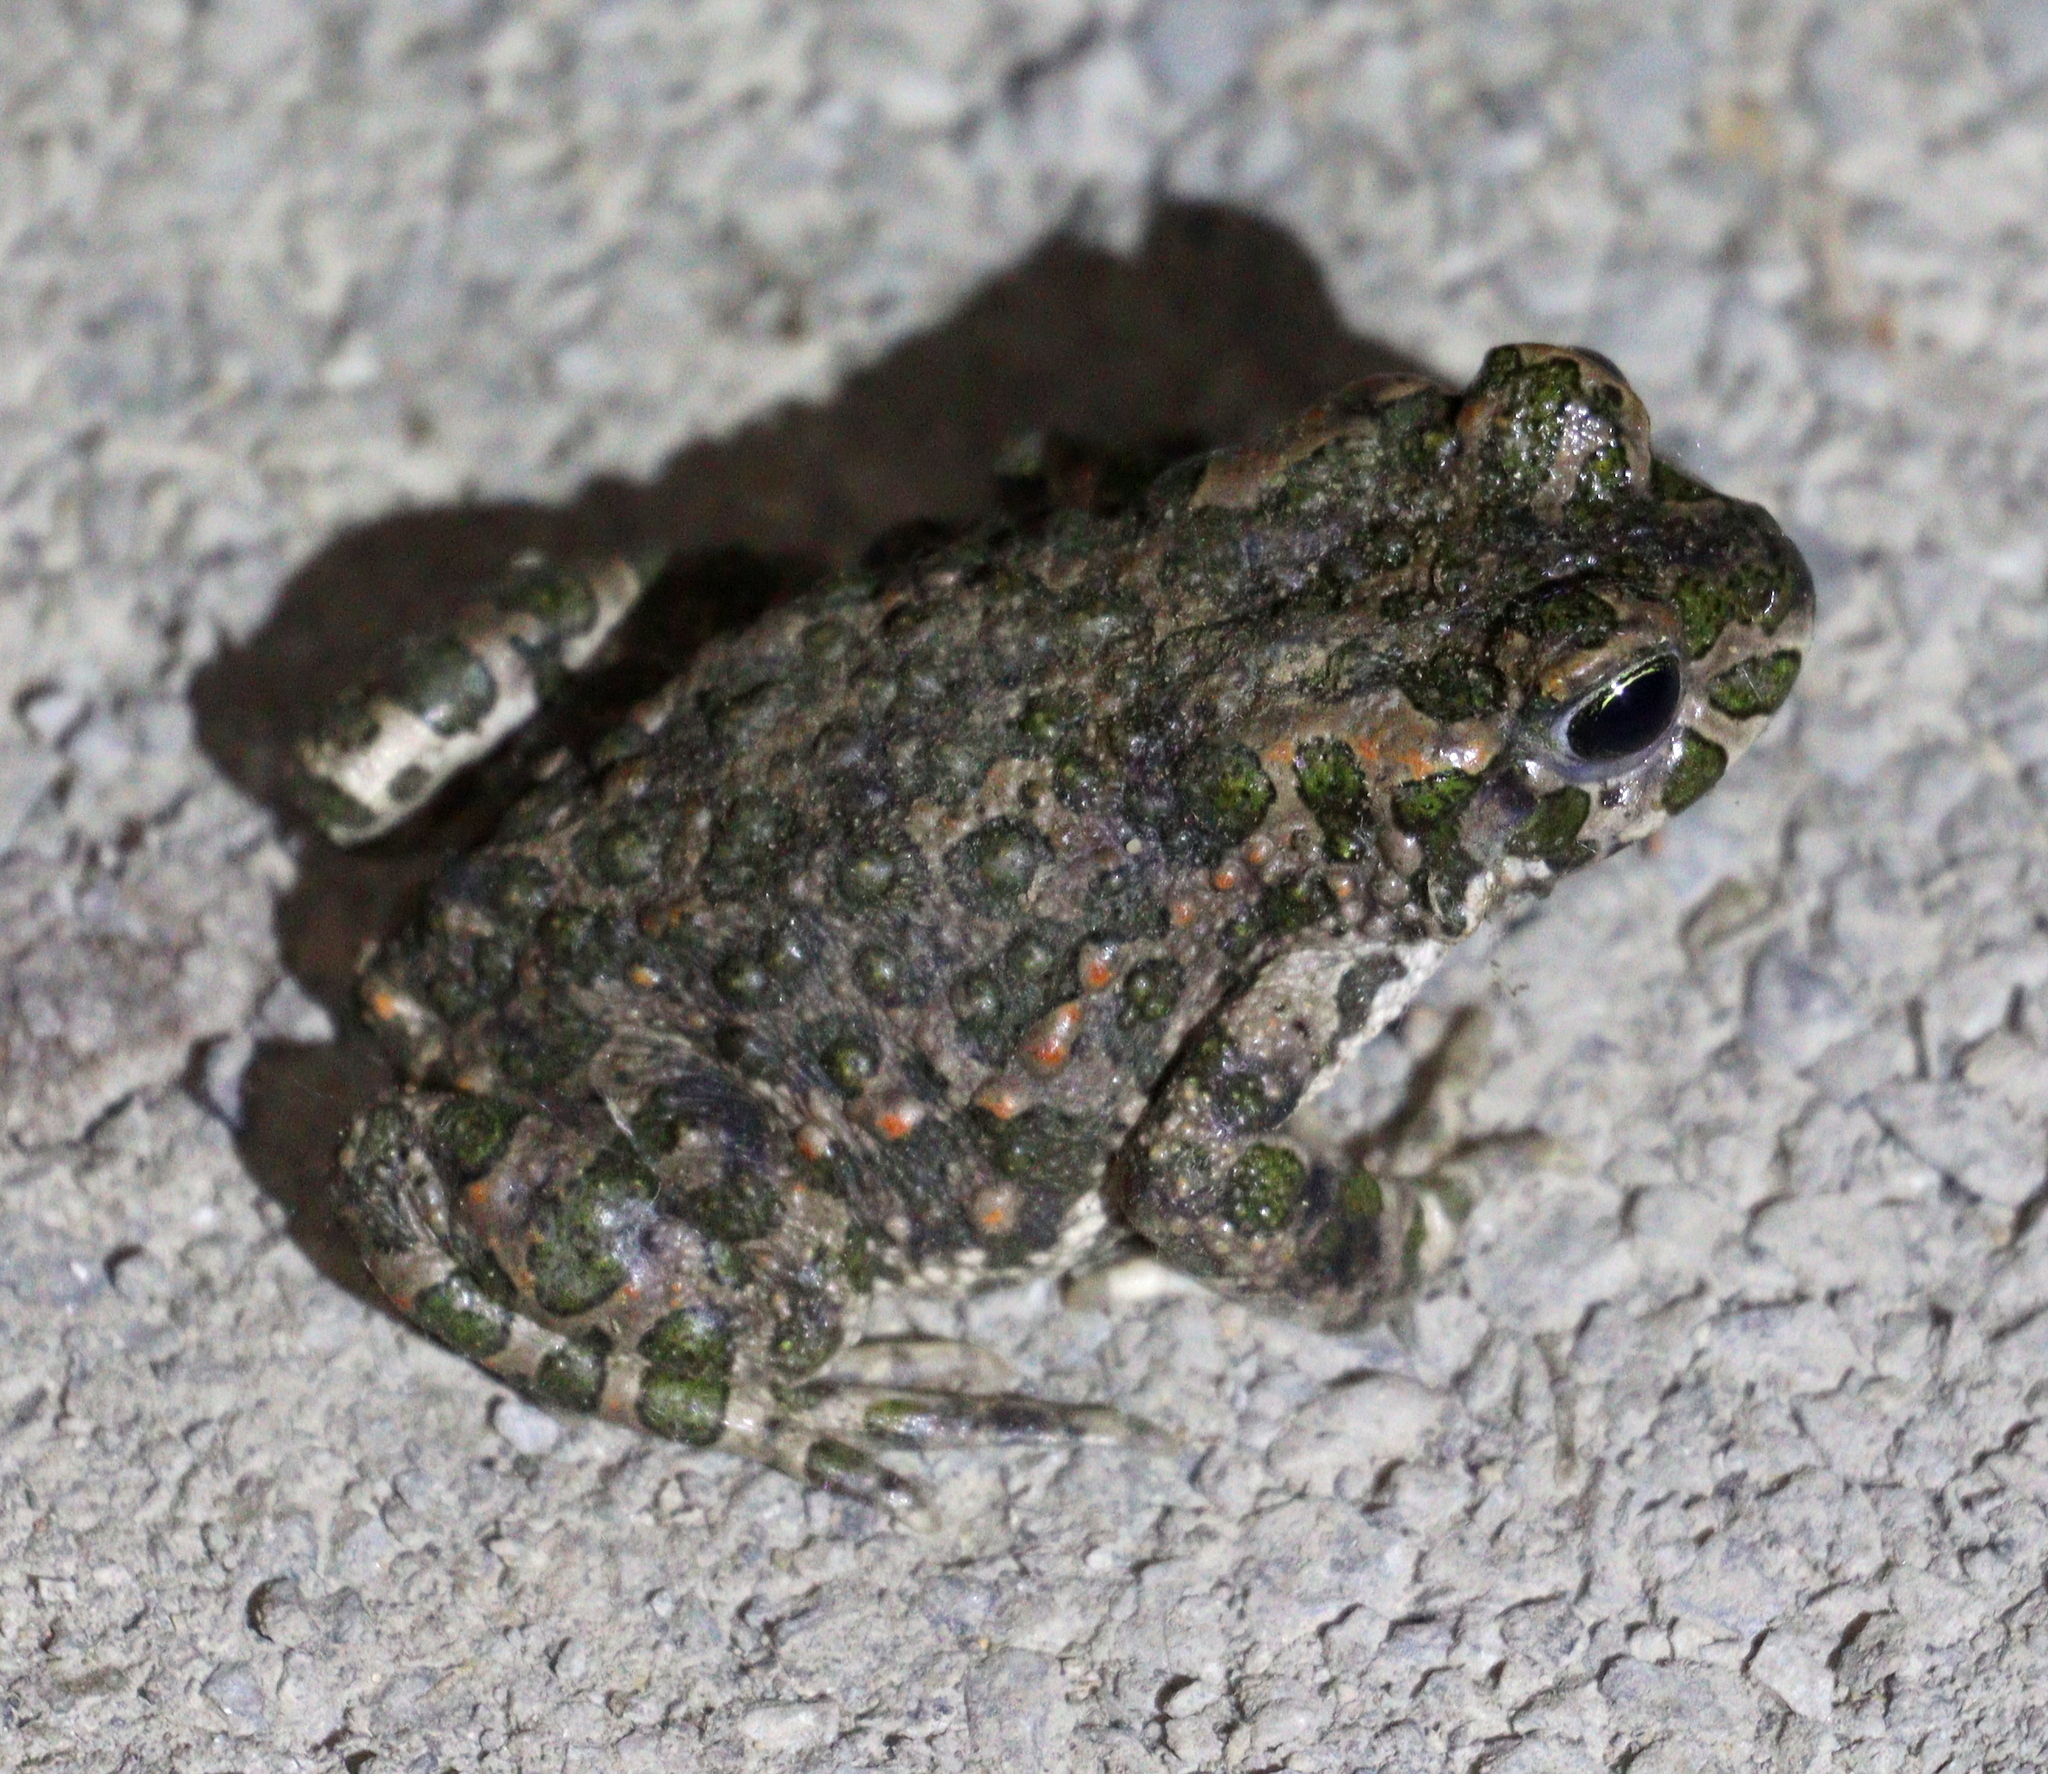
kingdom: Animalia
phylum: Chordata
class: Amphibia
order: Anura
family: Bufonidae
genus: Bufotes
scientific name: Bufotes viridis
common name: European green toad
